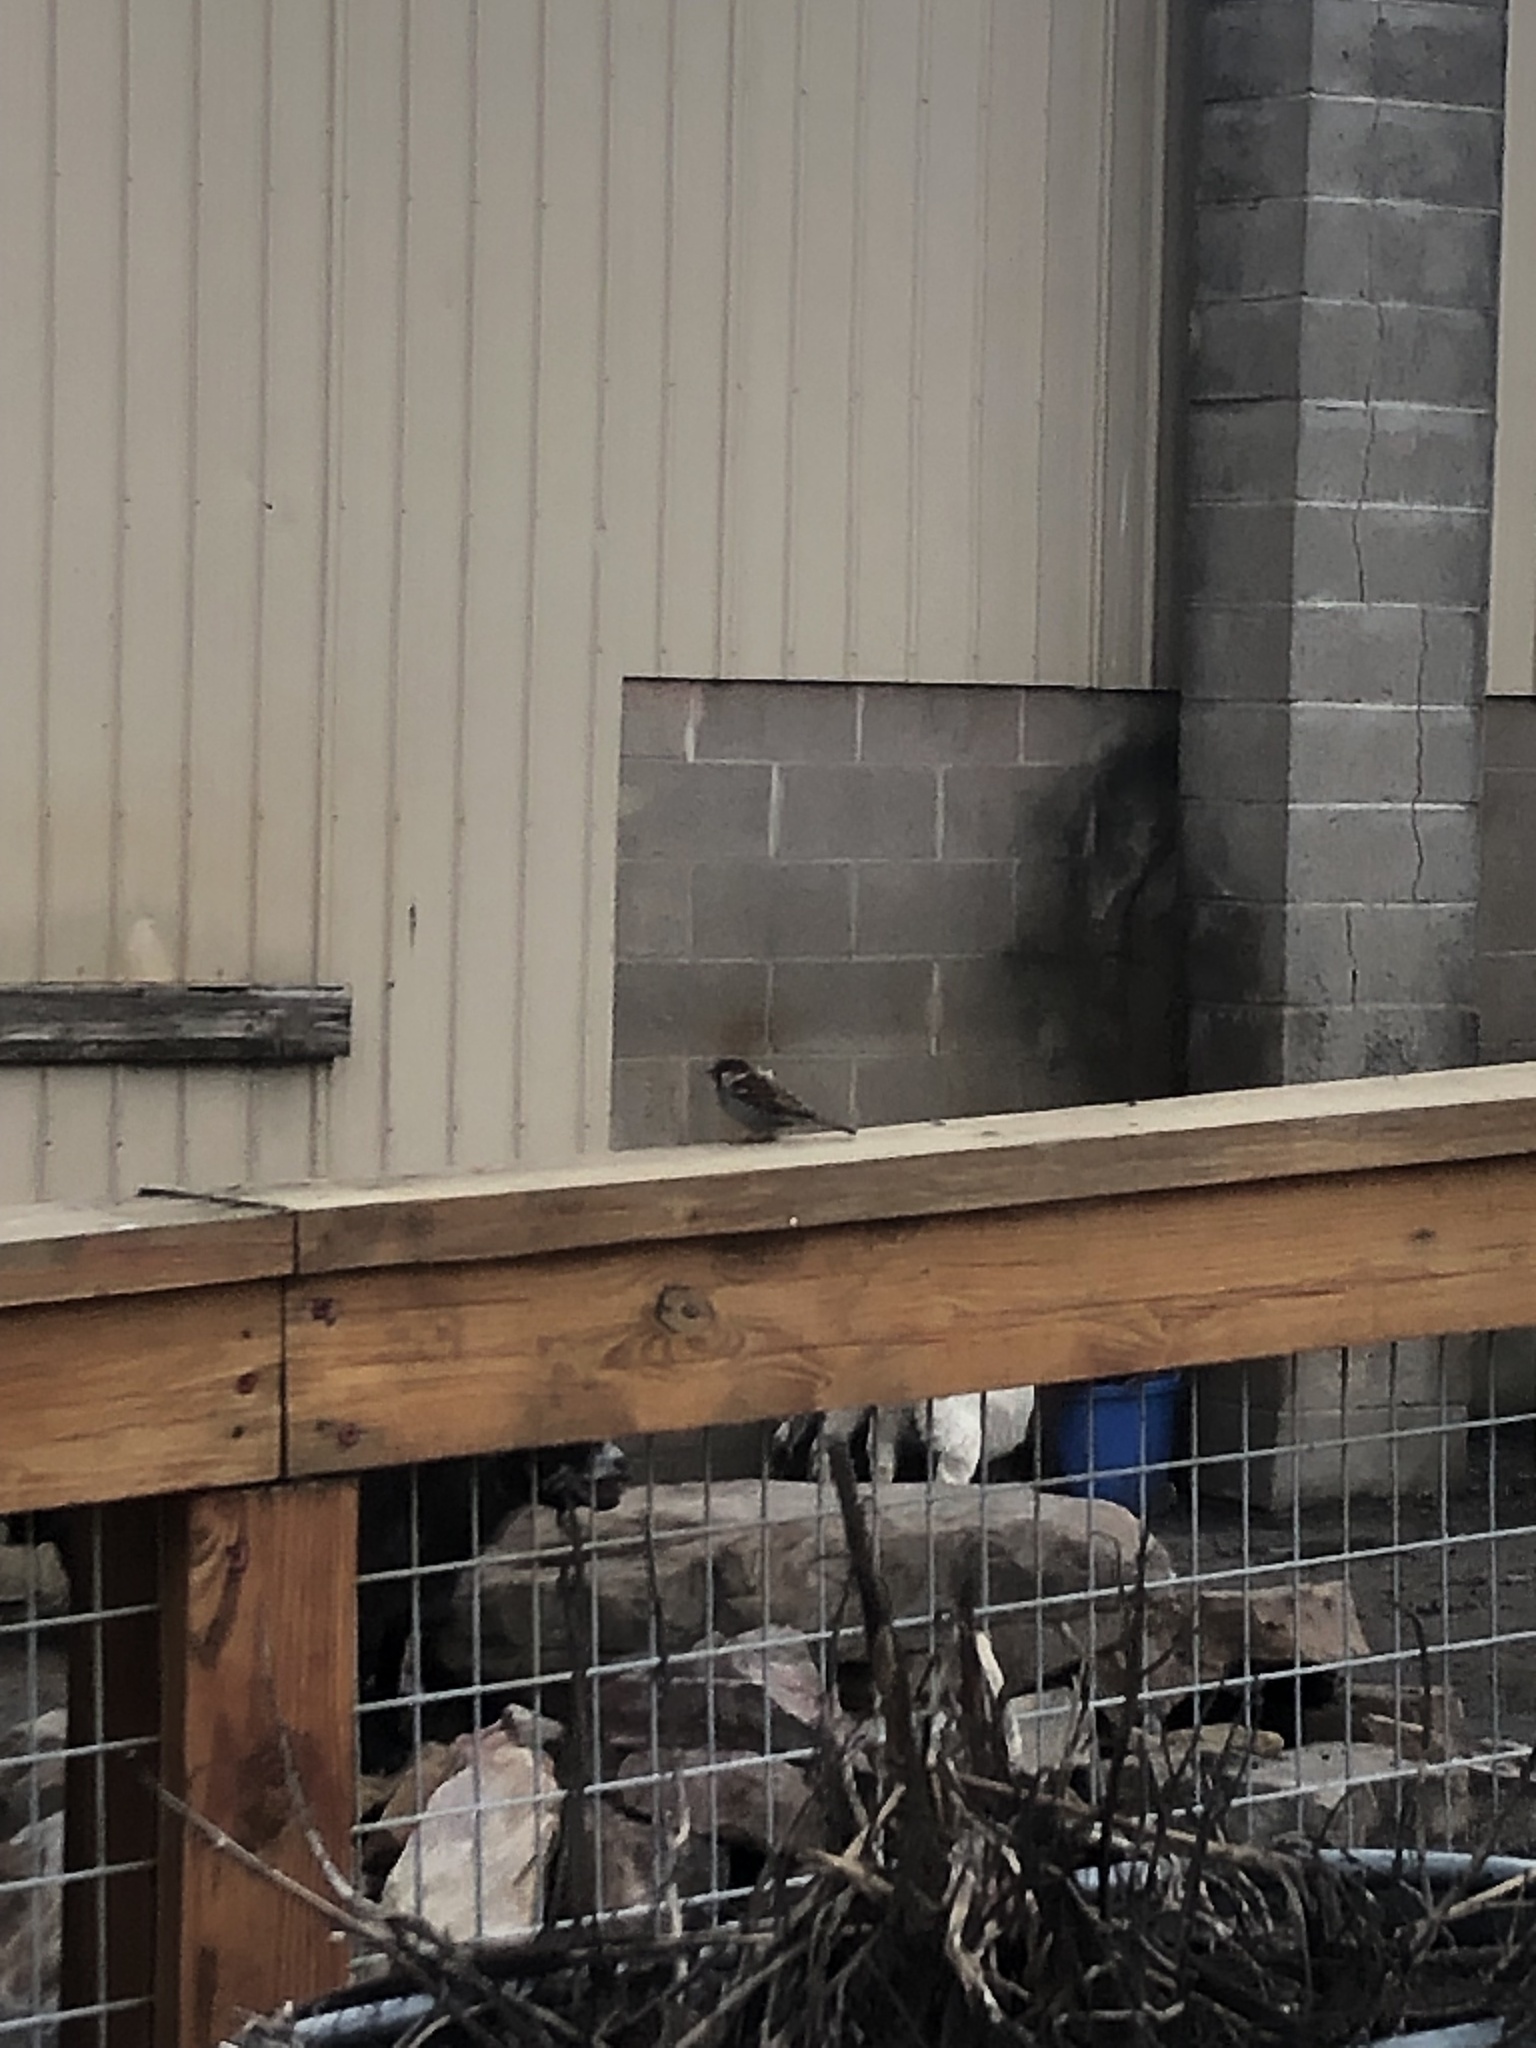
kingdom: Animalia
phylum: Chordata
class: Aves
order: Passeriformes
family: Passeridae
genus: Passer
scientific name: Passer domesticus
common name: House sparrow
